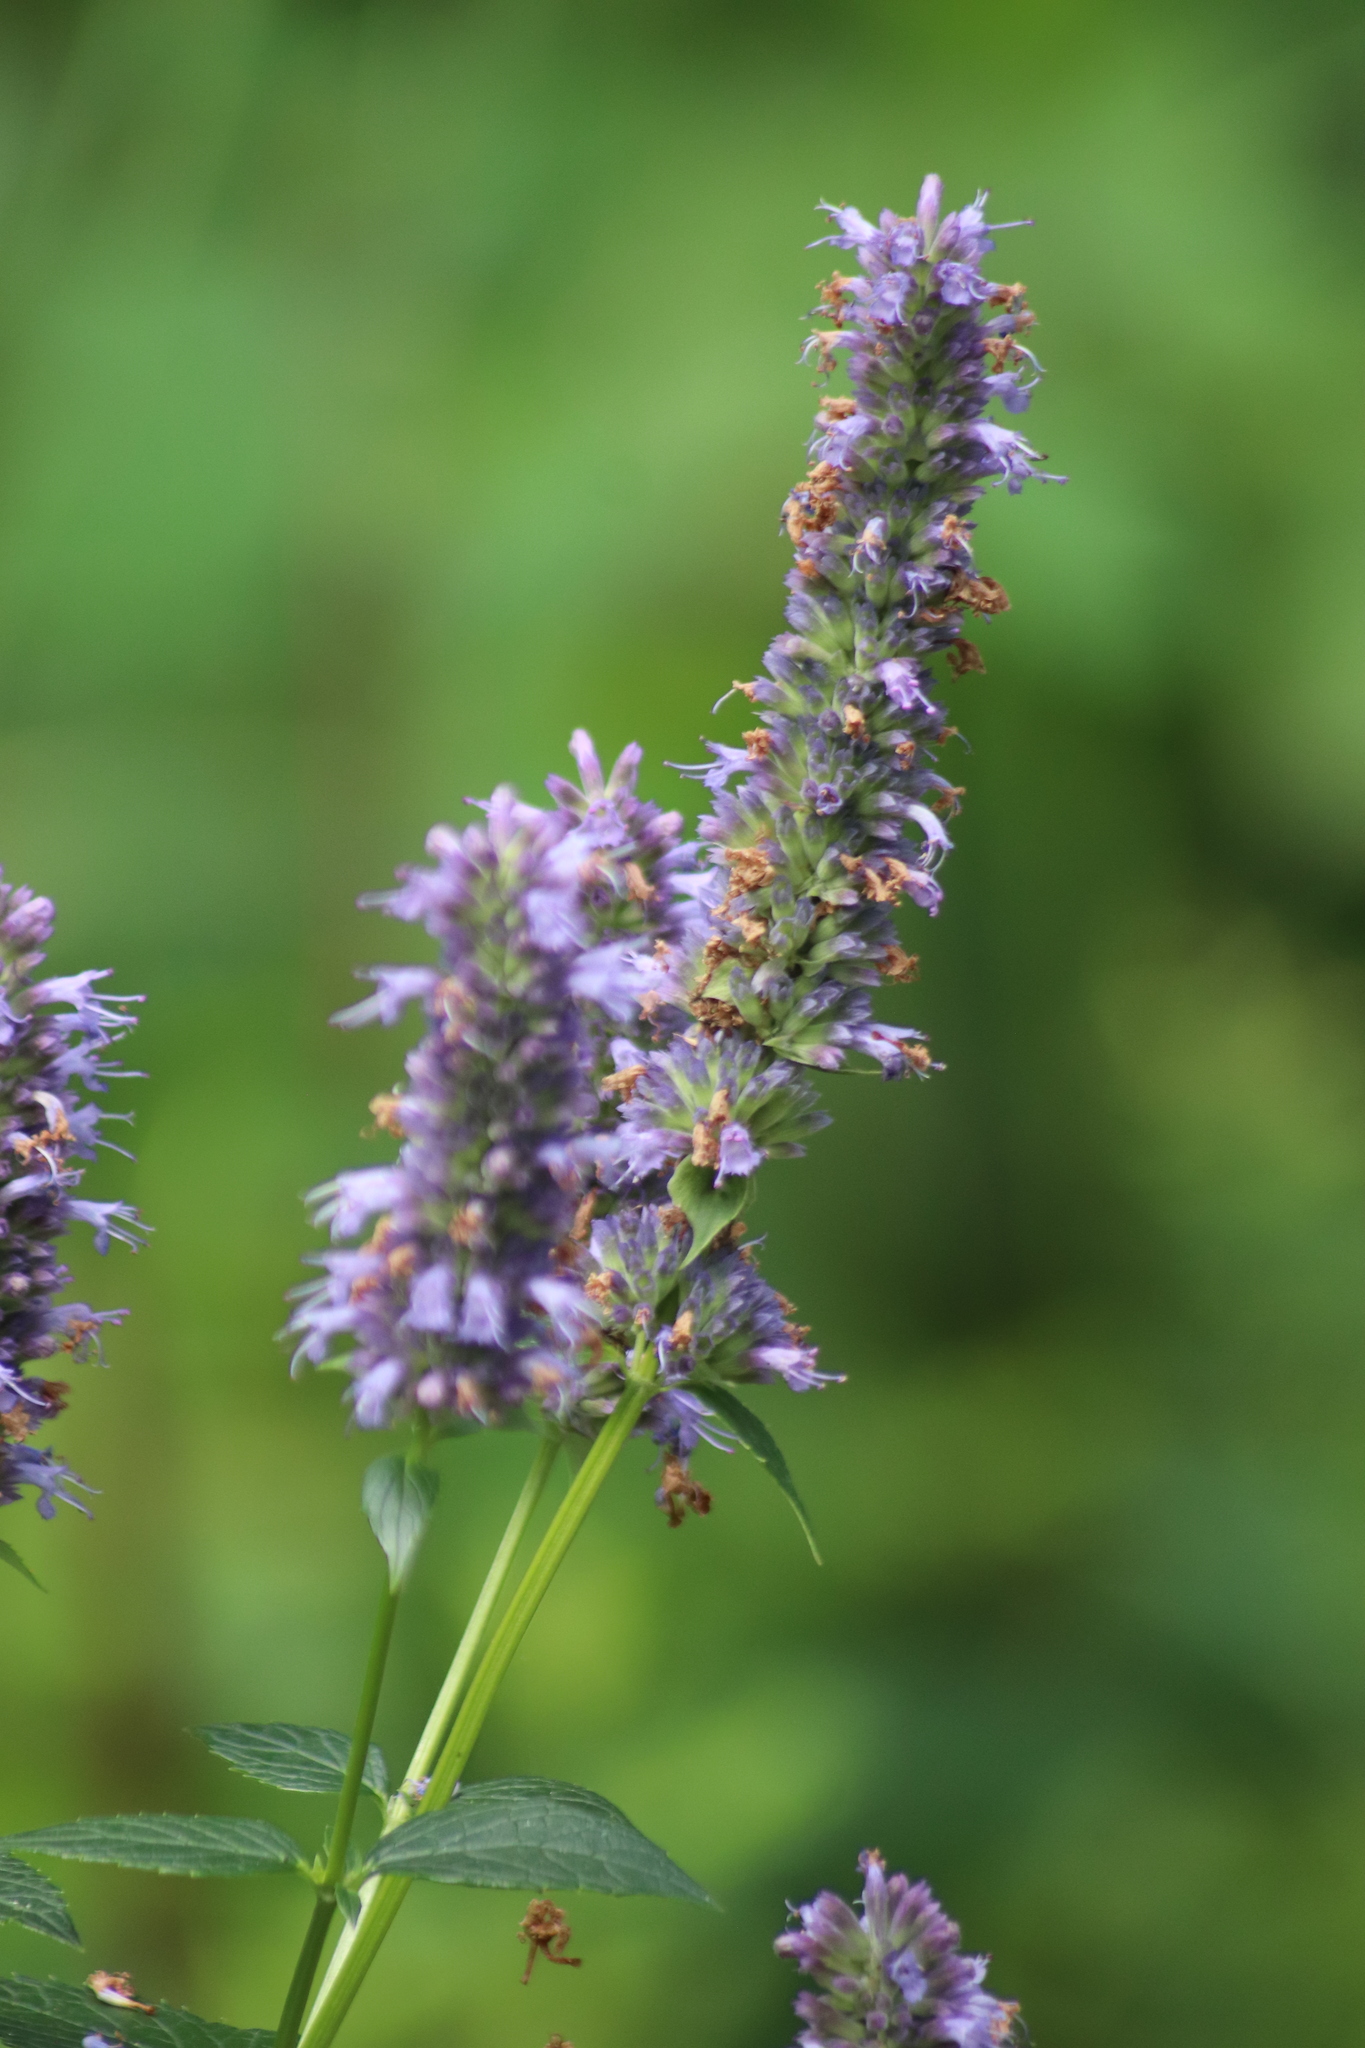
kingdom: Plantae
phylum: Tracheophyta
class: Magnoliopsida
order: Lamiales
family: Lamiaceae
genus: Agastache
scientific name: Agastache foeniculum
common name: Anise hyssop
